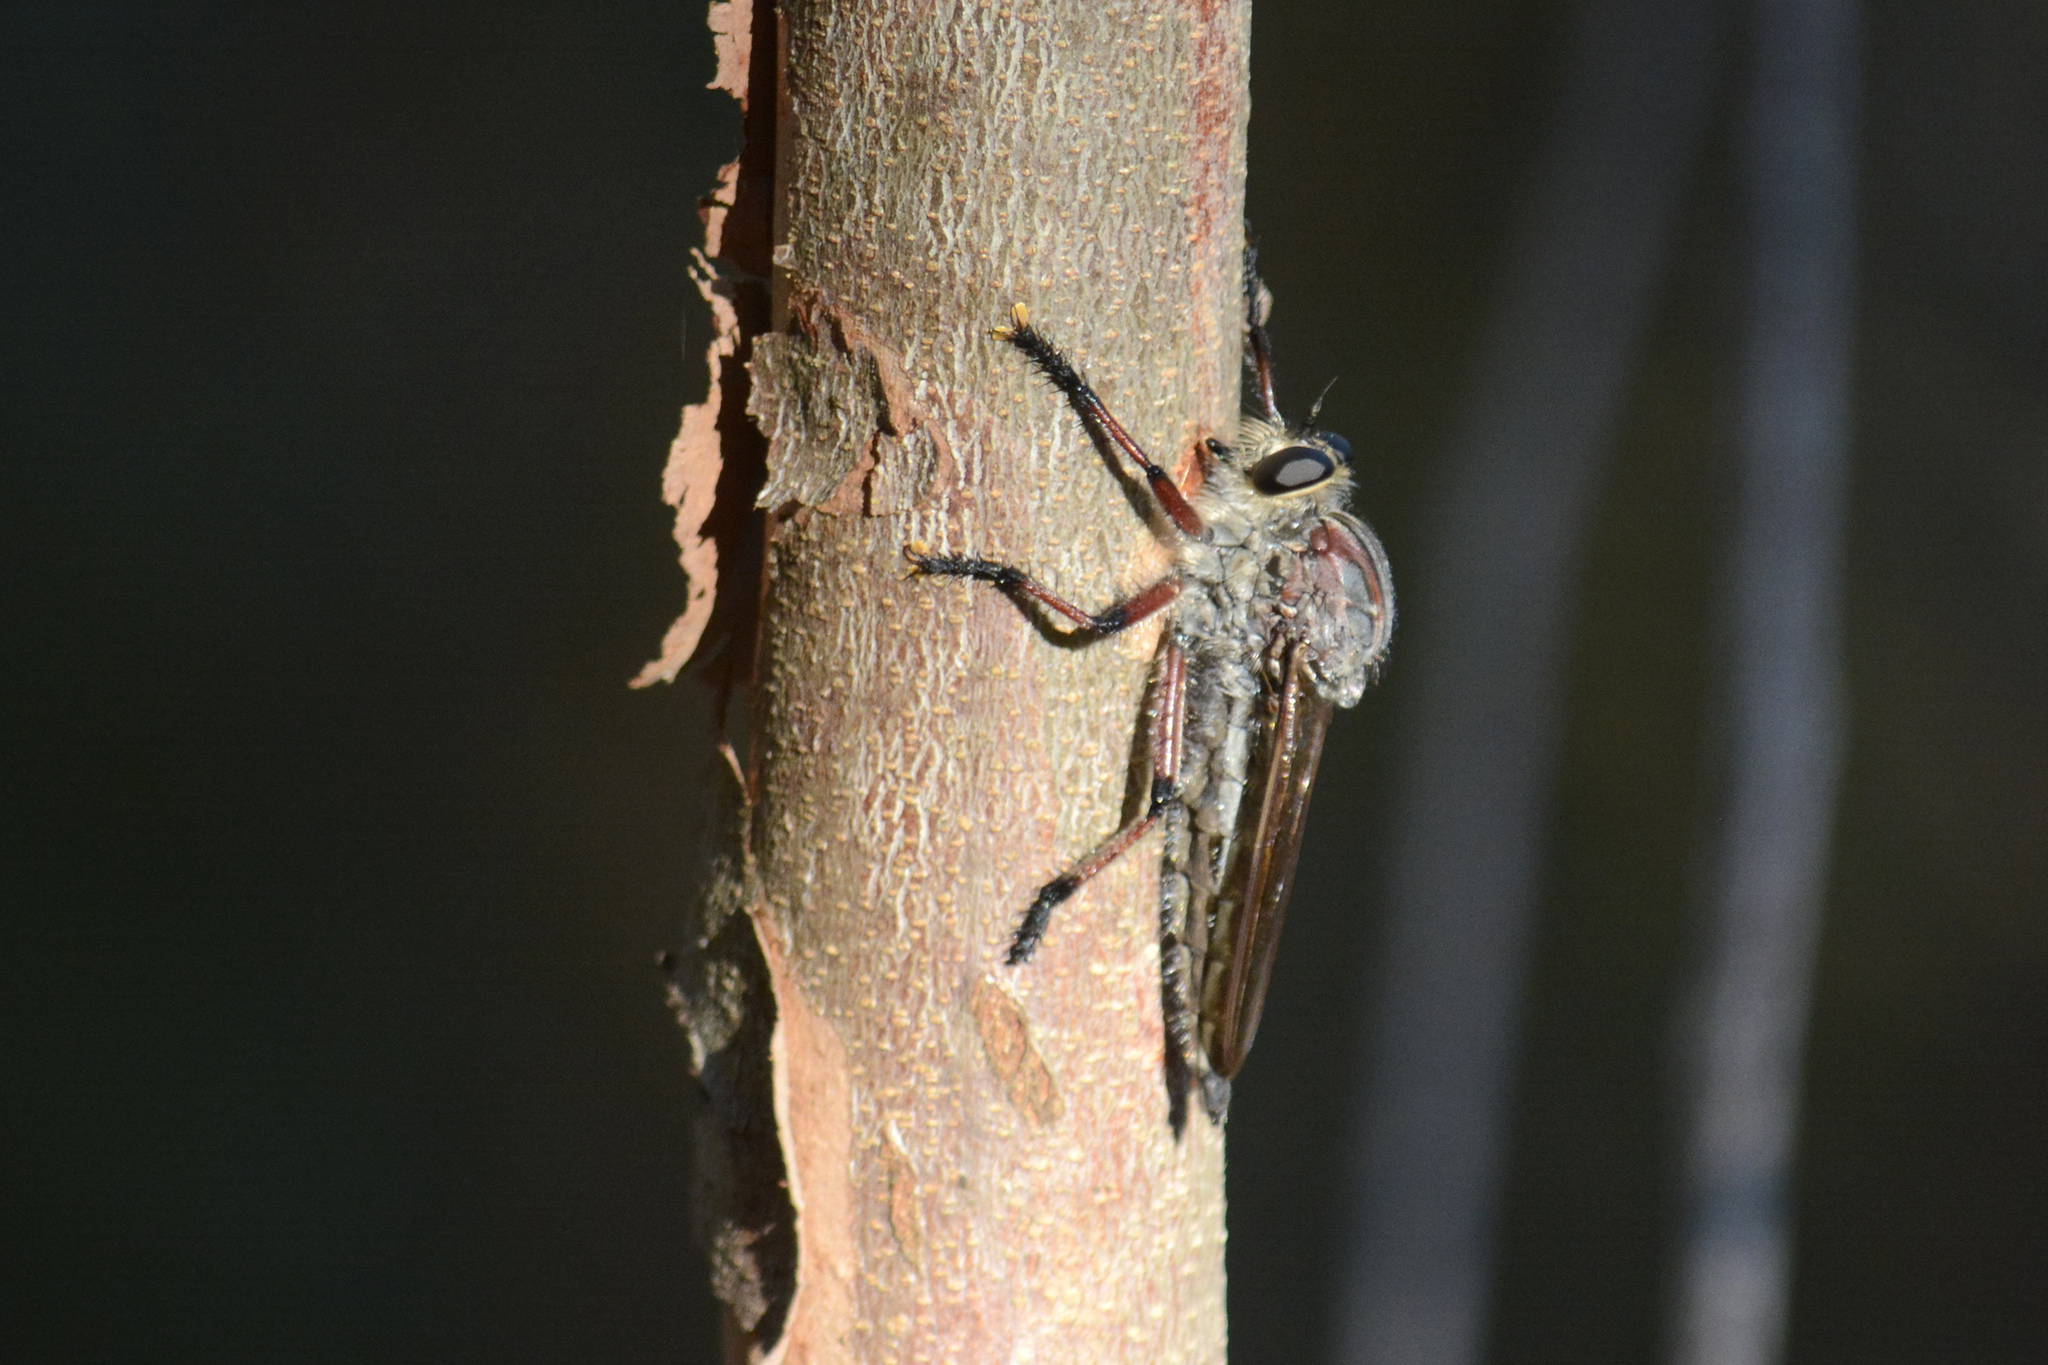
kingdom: Animalia
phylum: Arthropoda
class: Insecta
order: Diptera
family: Asilidae
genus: Neoaratus
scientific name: Neoaratus hercules
